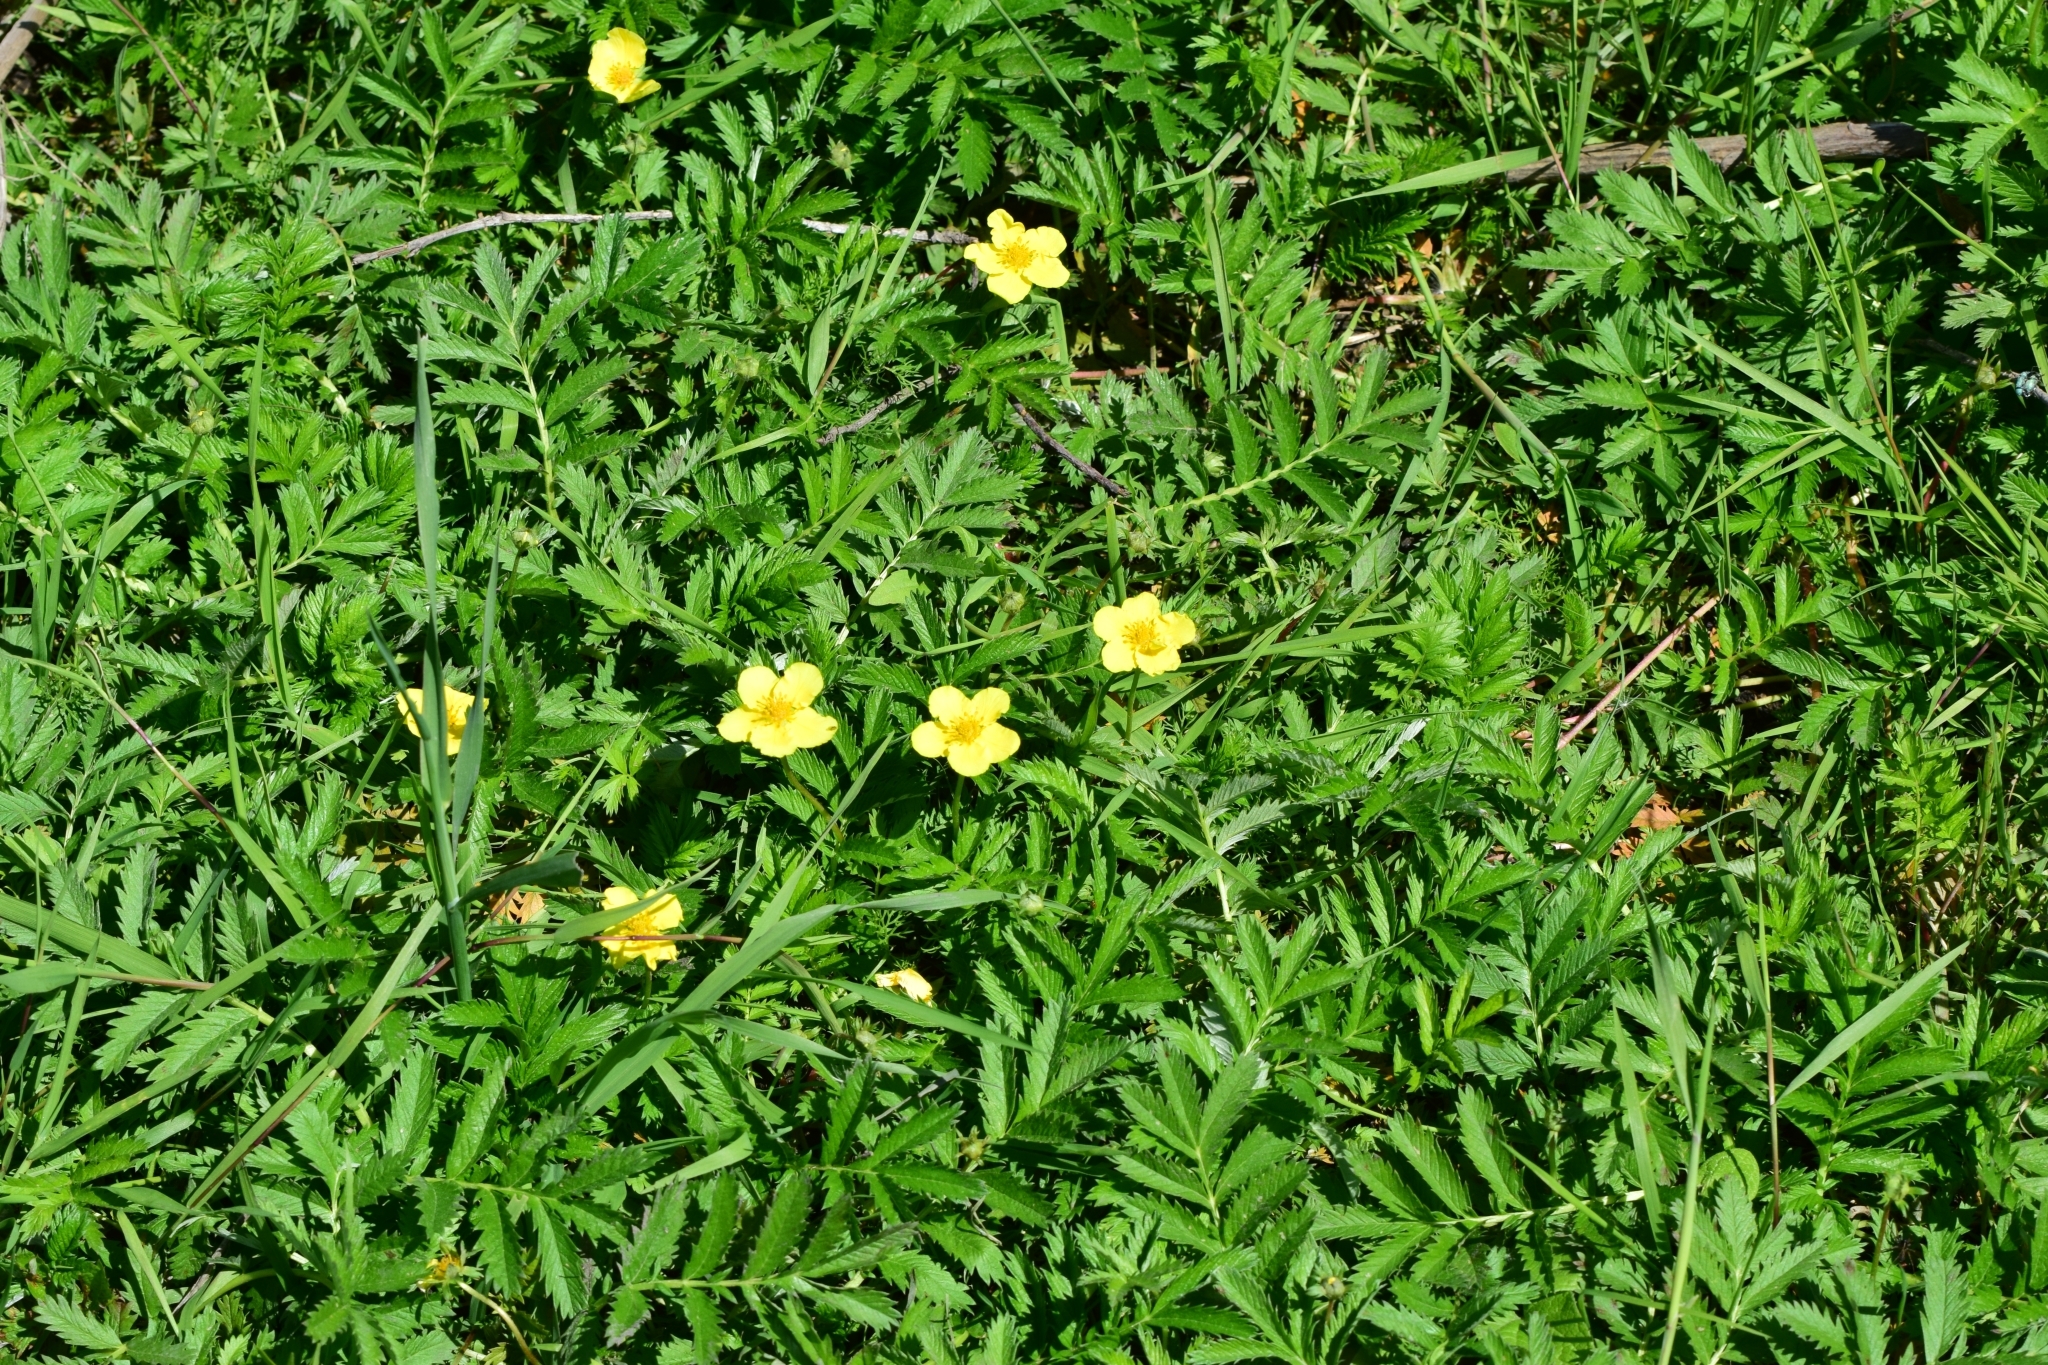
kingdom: Plantae
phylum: Tracheophyta
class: Magnoliopsida
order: Rosales
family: Rosaceae
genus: Argentina
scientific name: Argentina anserina
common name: Common silverweed
